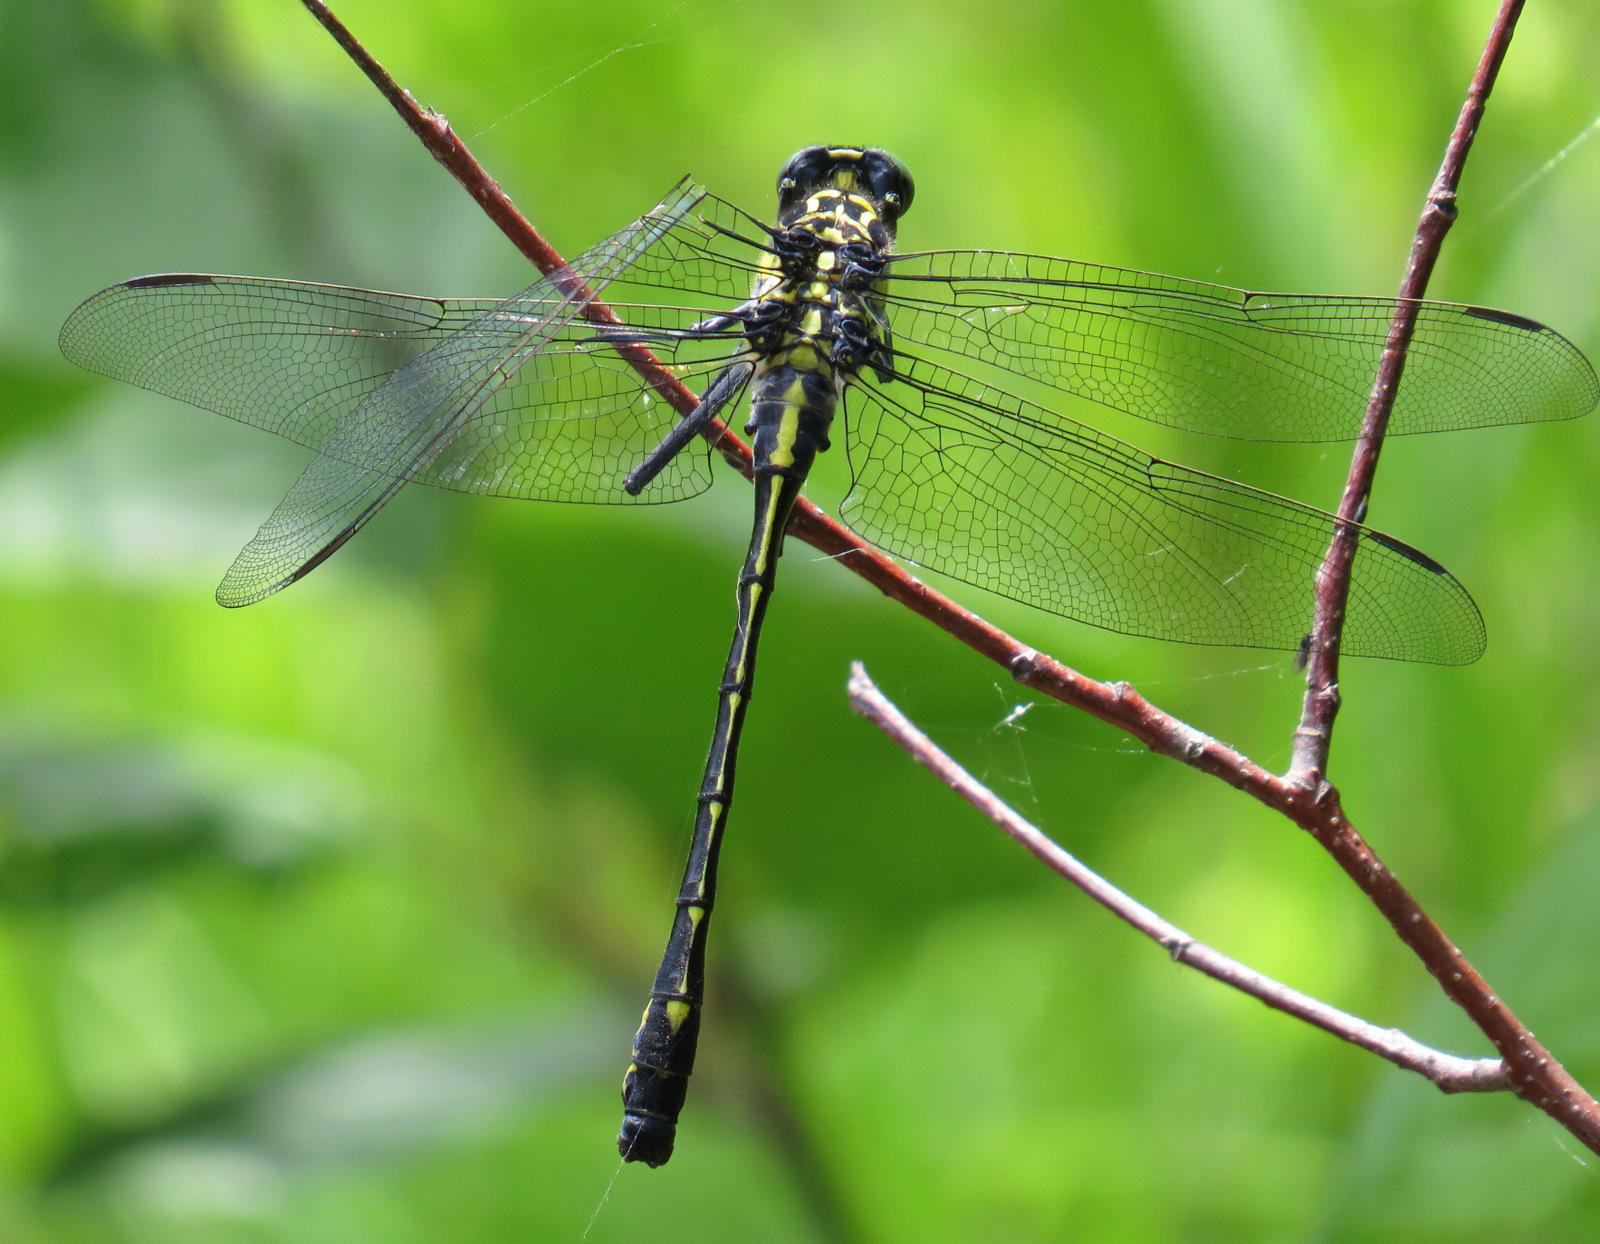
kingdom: Animalia
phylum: Arthropoda
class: Insecta
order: Odonata
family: Gomphidae
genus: Hagenius
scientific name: Hagenius brevistylus
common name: Dragonhunter
